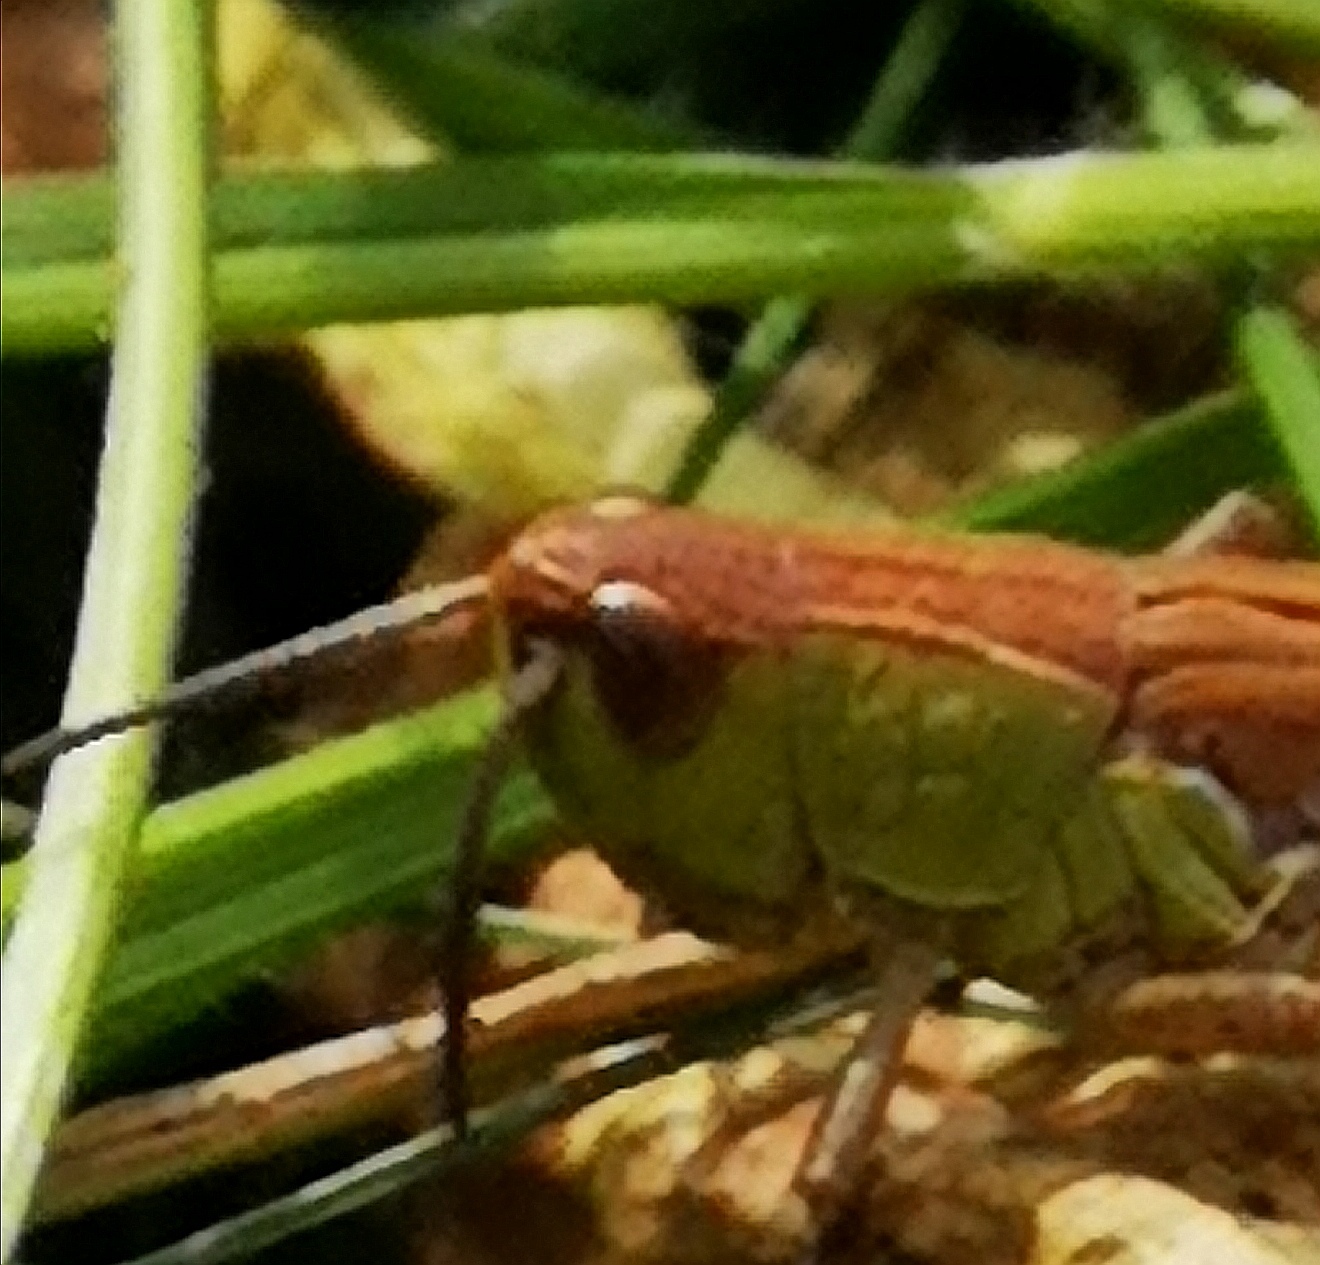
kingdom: Animalia
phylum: Arthropoda
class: Insecta
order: Orthoptera
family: Acrididae
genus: Pseudochorthippus
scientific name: Pseudochorthippus parallelus
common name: Meadow grasshopper
